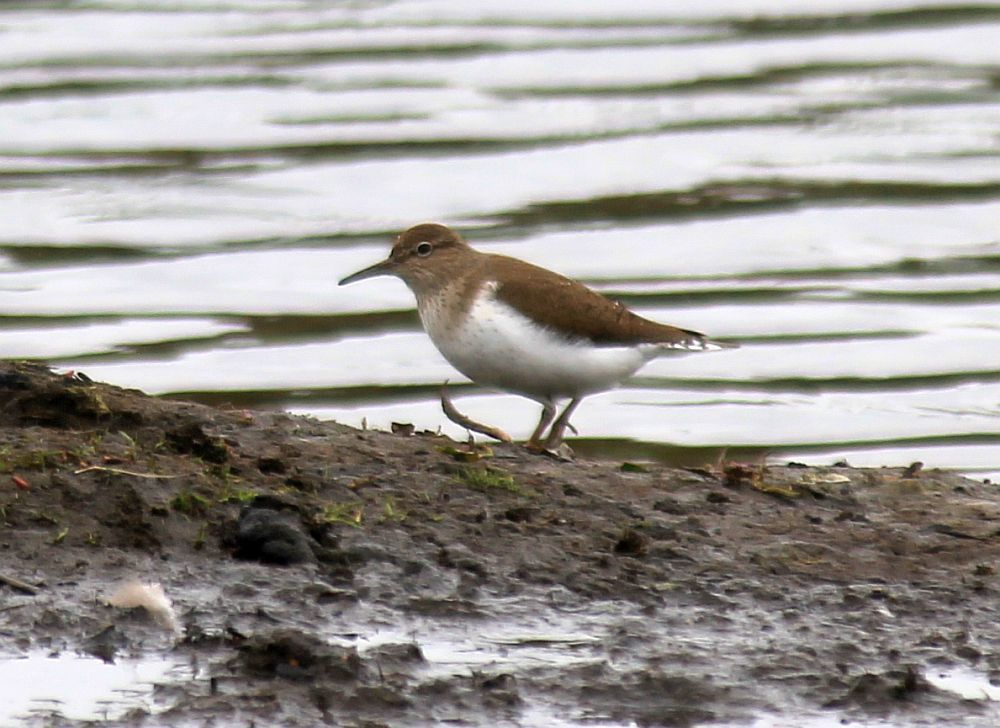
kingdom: Animalia
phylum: Chordata
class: Aves
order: Charadriiformes
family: Scolopacidae
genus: Actitis
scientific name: Actitis hypoleucos
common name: Common sandpiper
